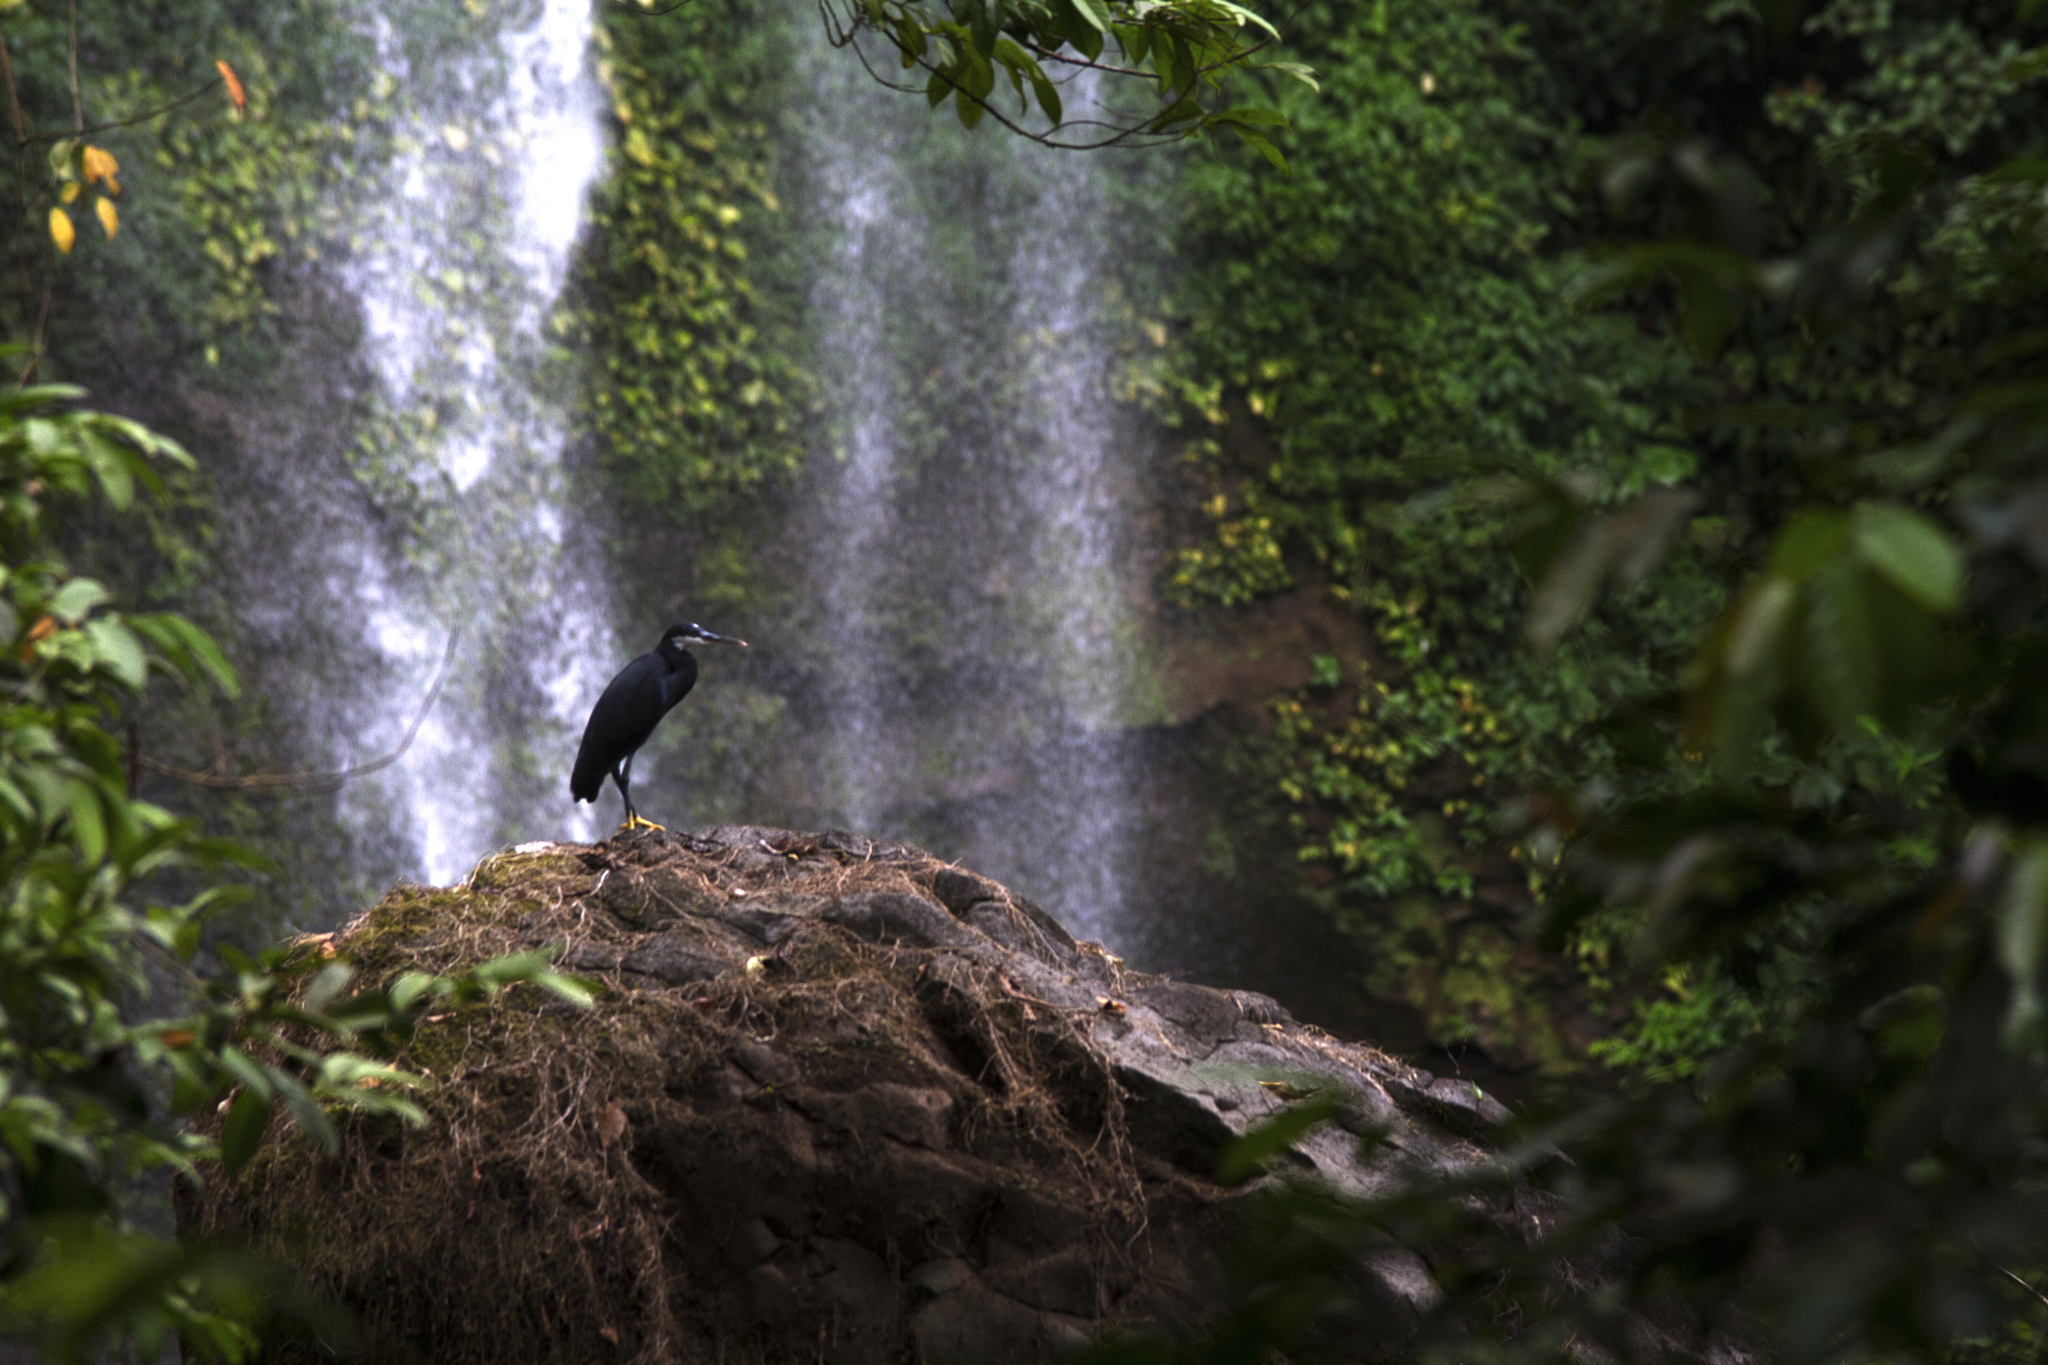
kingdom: Animalia
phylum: Chordata
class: Aves
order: Pelecaniformes
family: Ardeidae
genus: Egretta
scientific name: Egretta gularis
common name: Western reef-heron
